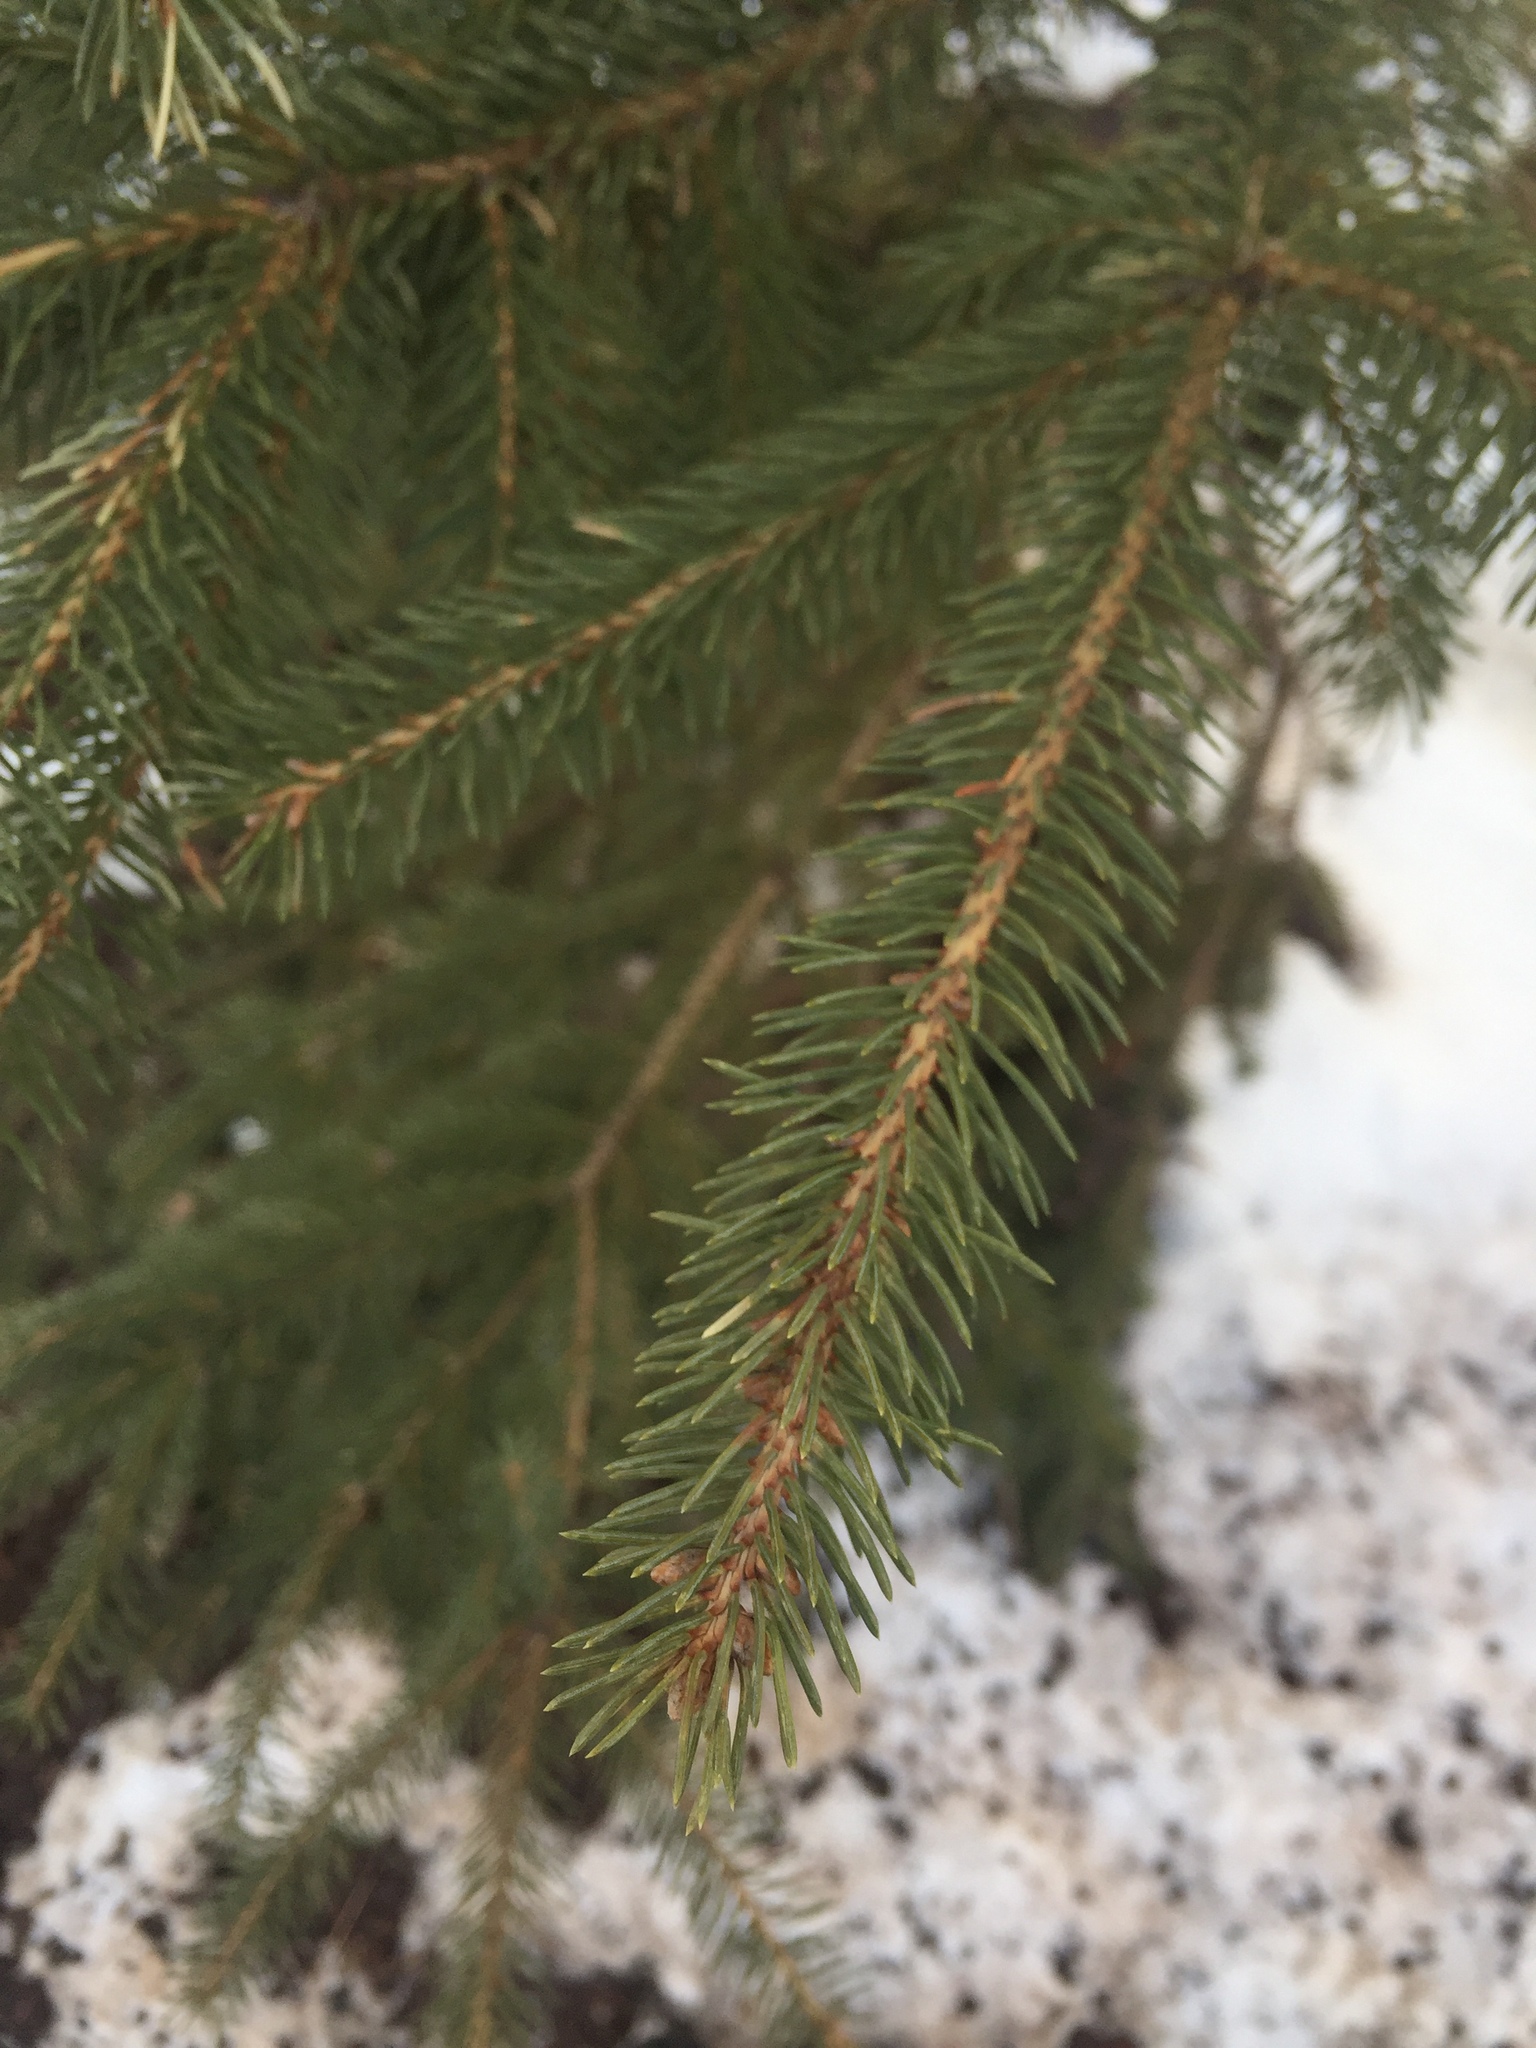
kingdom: Plantae
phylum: Tracheophyta
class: Pinopsida
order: Pinales
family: Pinaceae
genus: Picea
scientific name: Picea glauca
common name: White spruce
